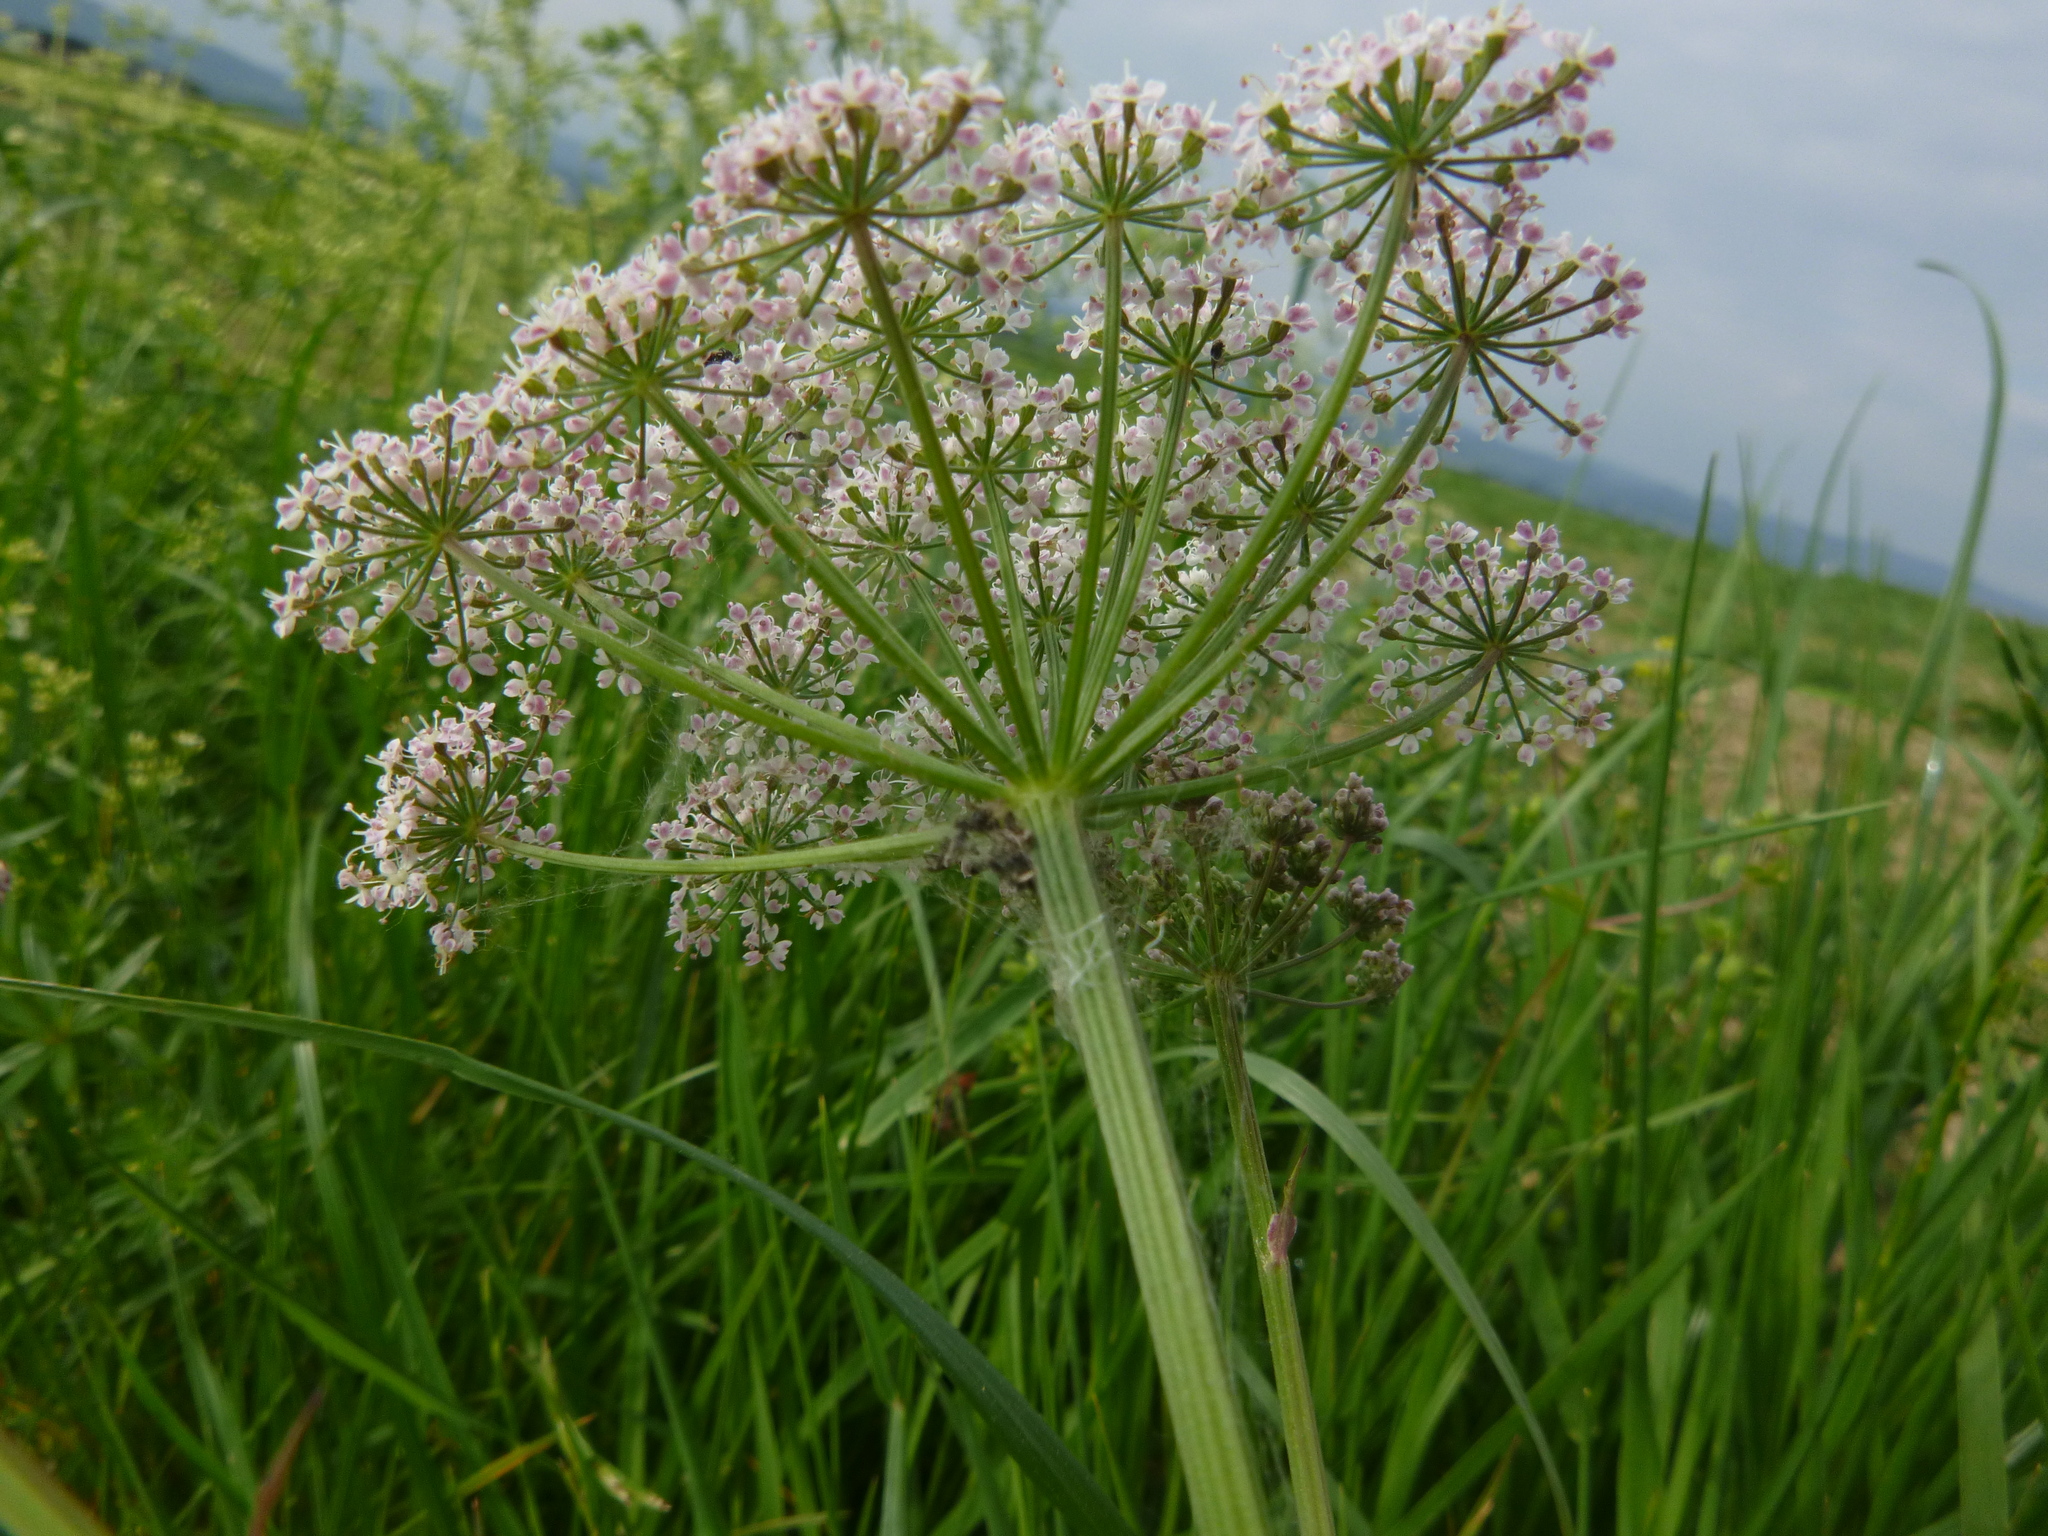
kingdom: Plantae
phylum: Tracheophyta
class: Magnoliopsida
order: Apiales
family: Apiaceae
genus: Aegopodium
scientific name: Aegopodium podagraria
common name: Ground-elder
